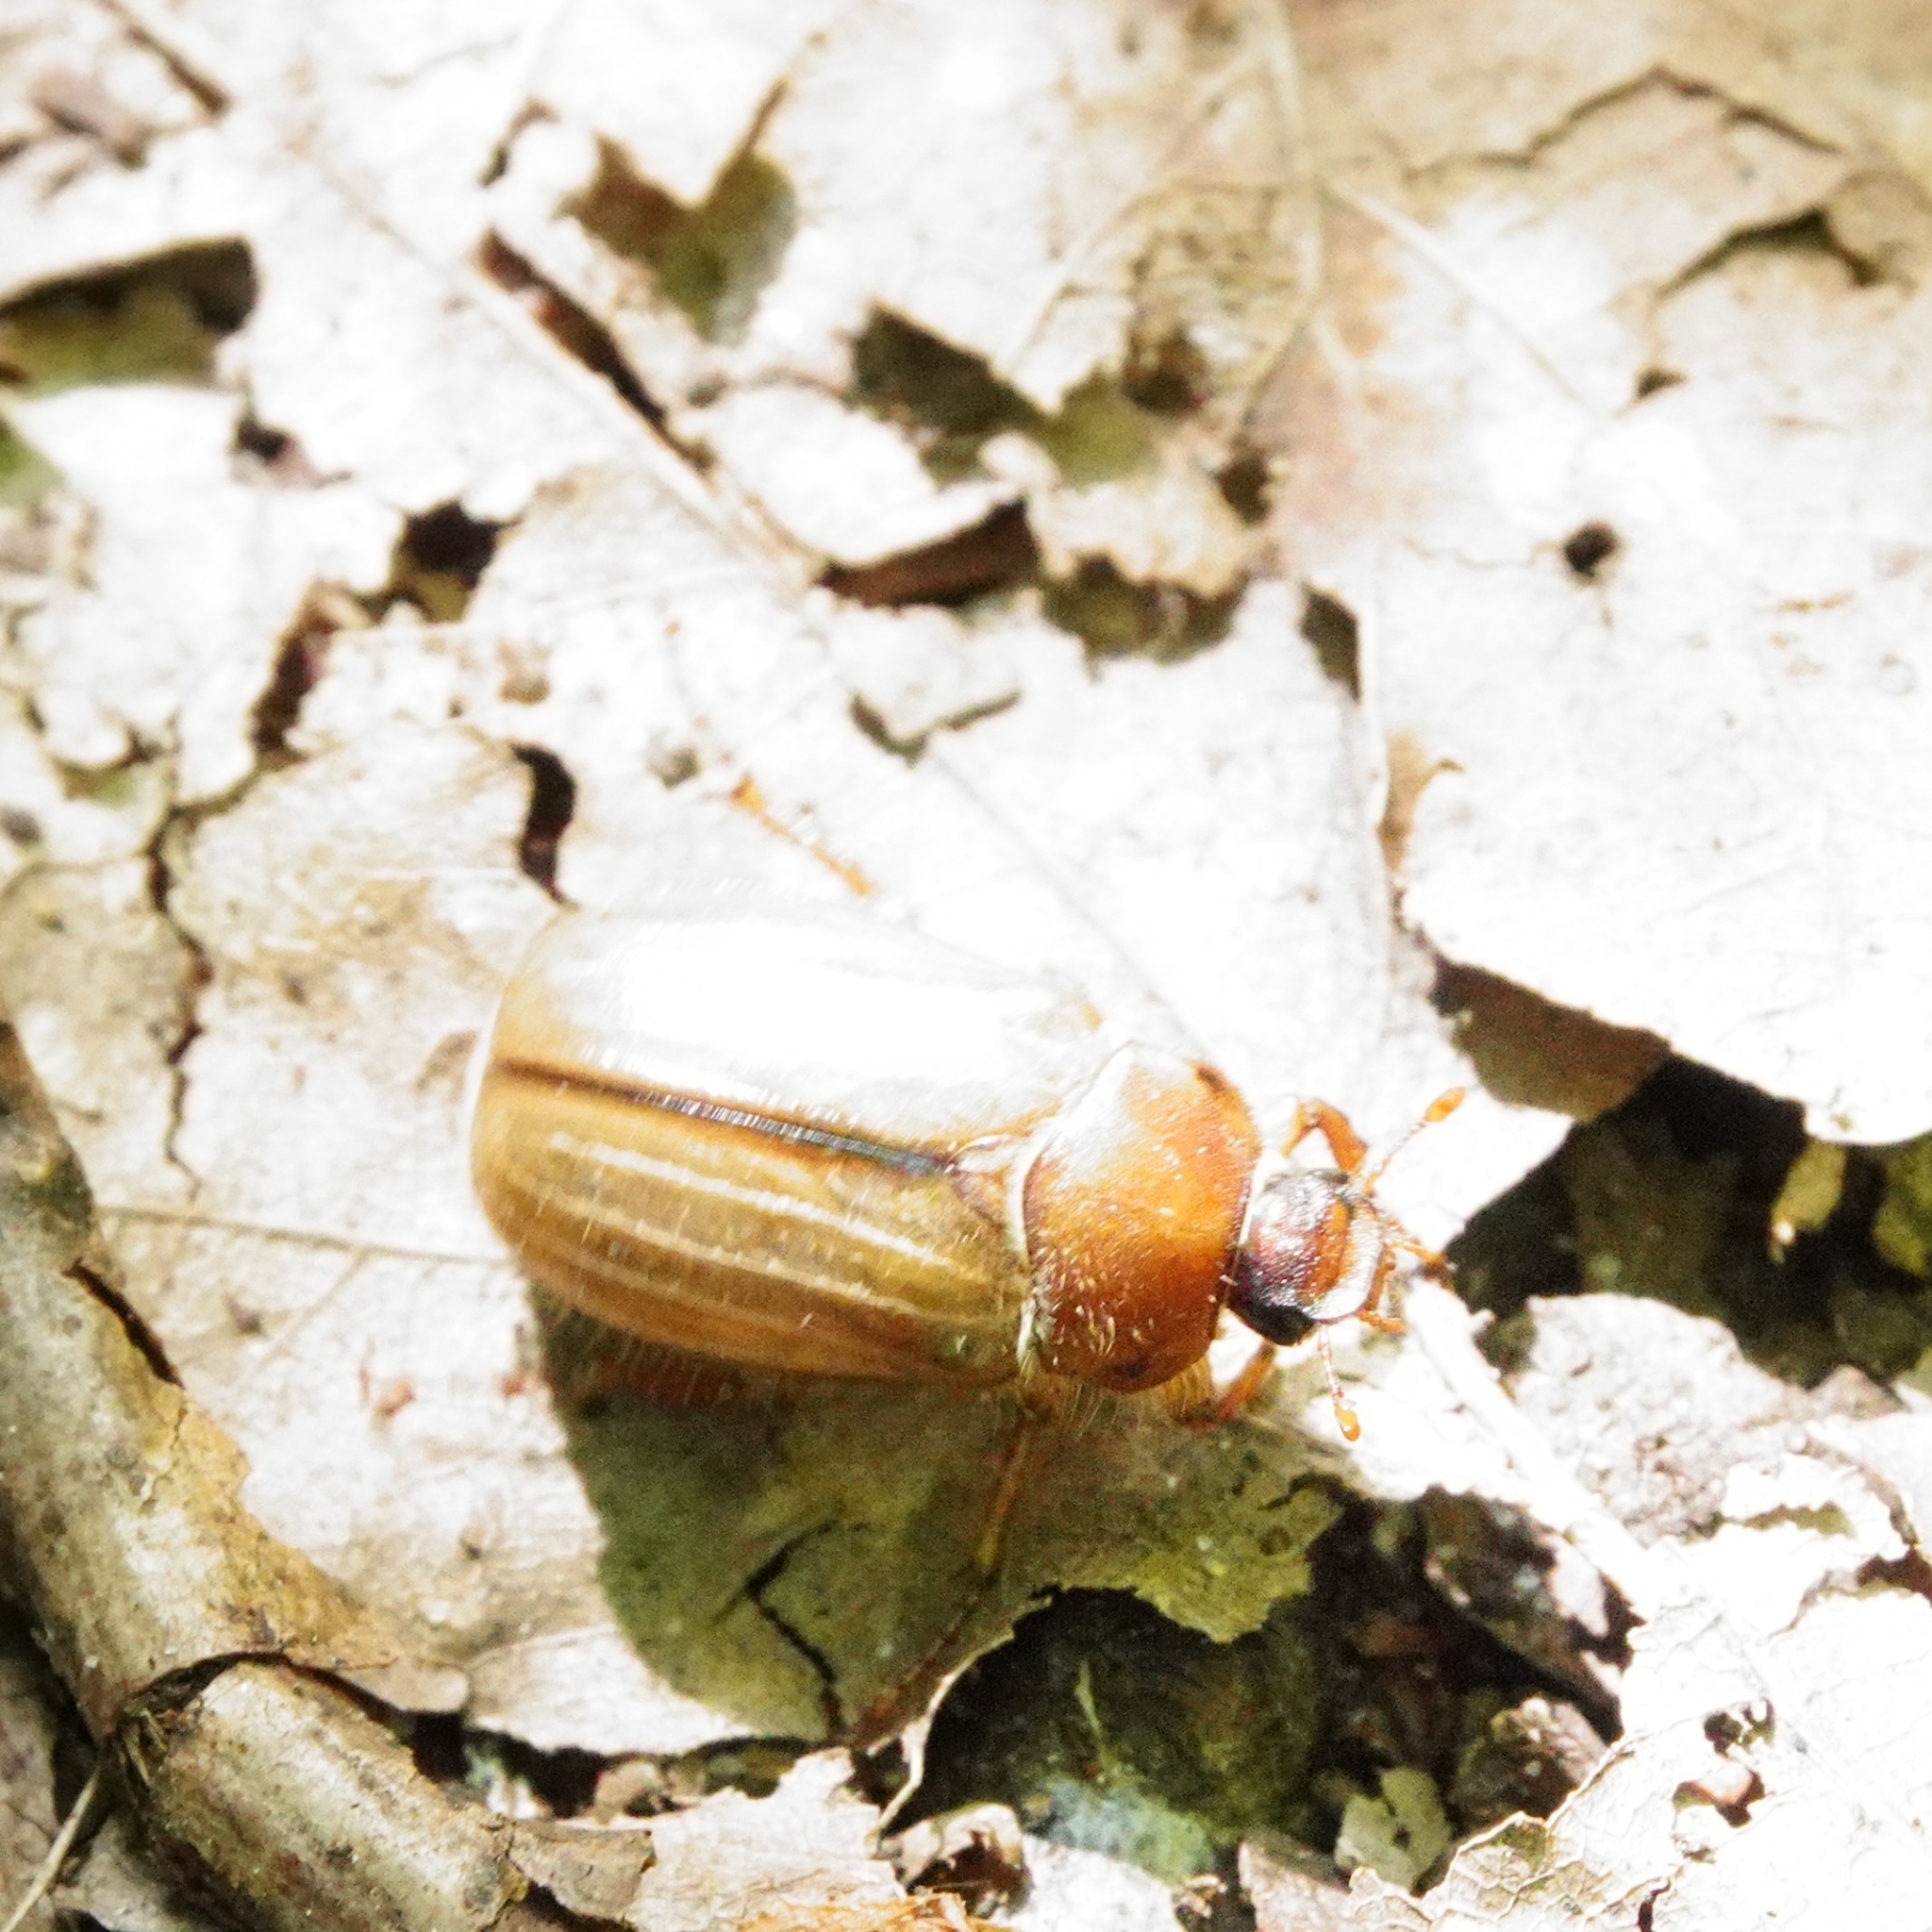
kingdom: Animalia
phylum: Arthropoda
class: Insecta
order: Coleoptera
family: Scarabaeidae
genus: Amphimallon
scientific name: Amphimallon solstitiale
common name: Summer chafer
